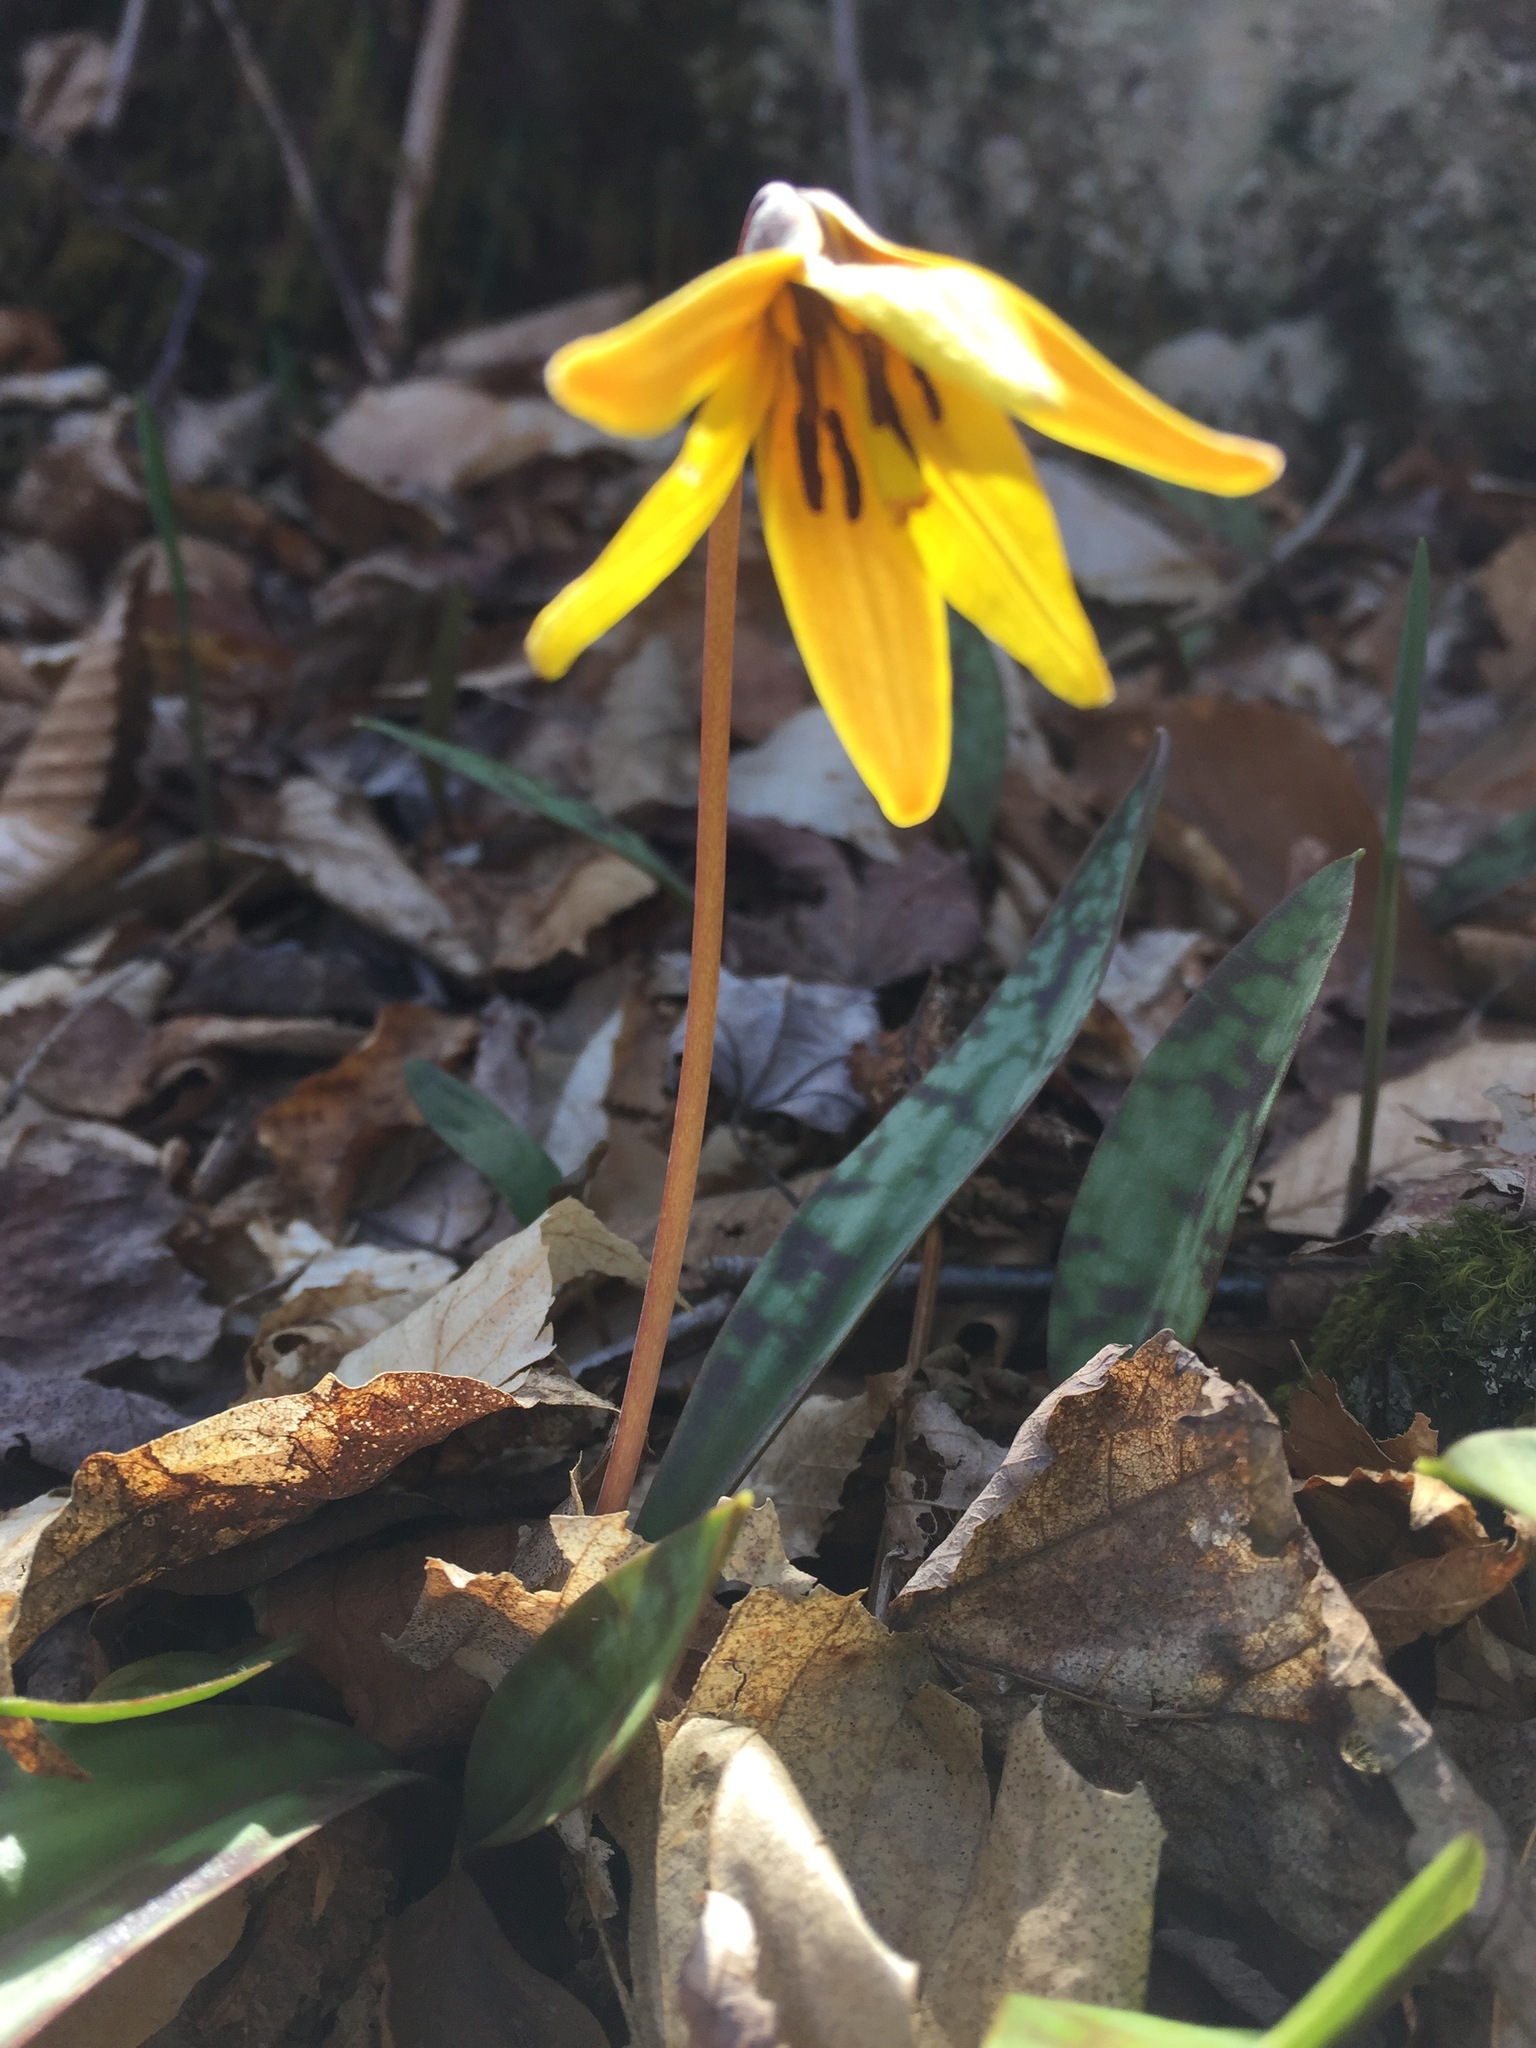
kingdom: Plantae
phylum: Tracheophyta
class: Liliopsida
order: Liliales
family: Liliaceae
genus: Erythronium
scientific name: Erythronium americanum
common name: Yellow adder's-tongue
